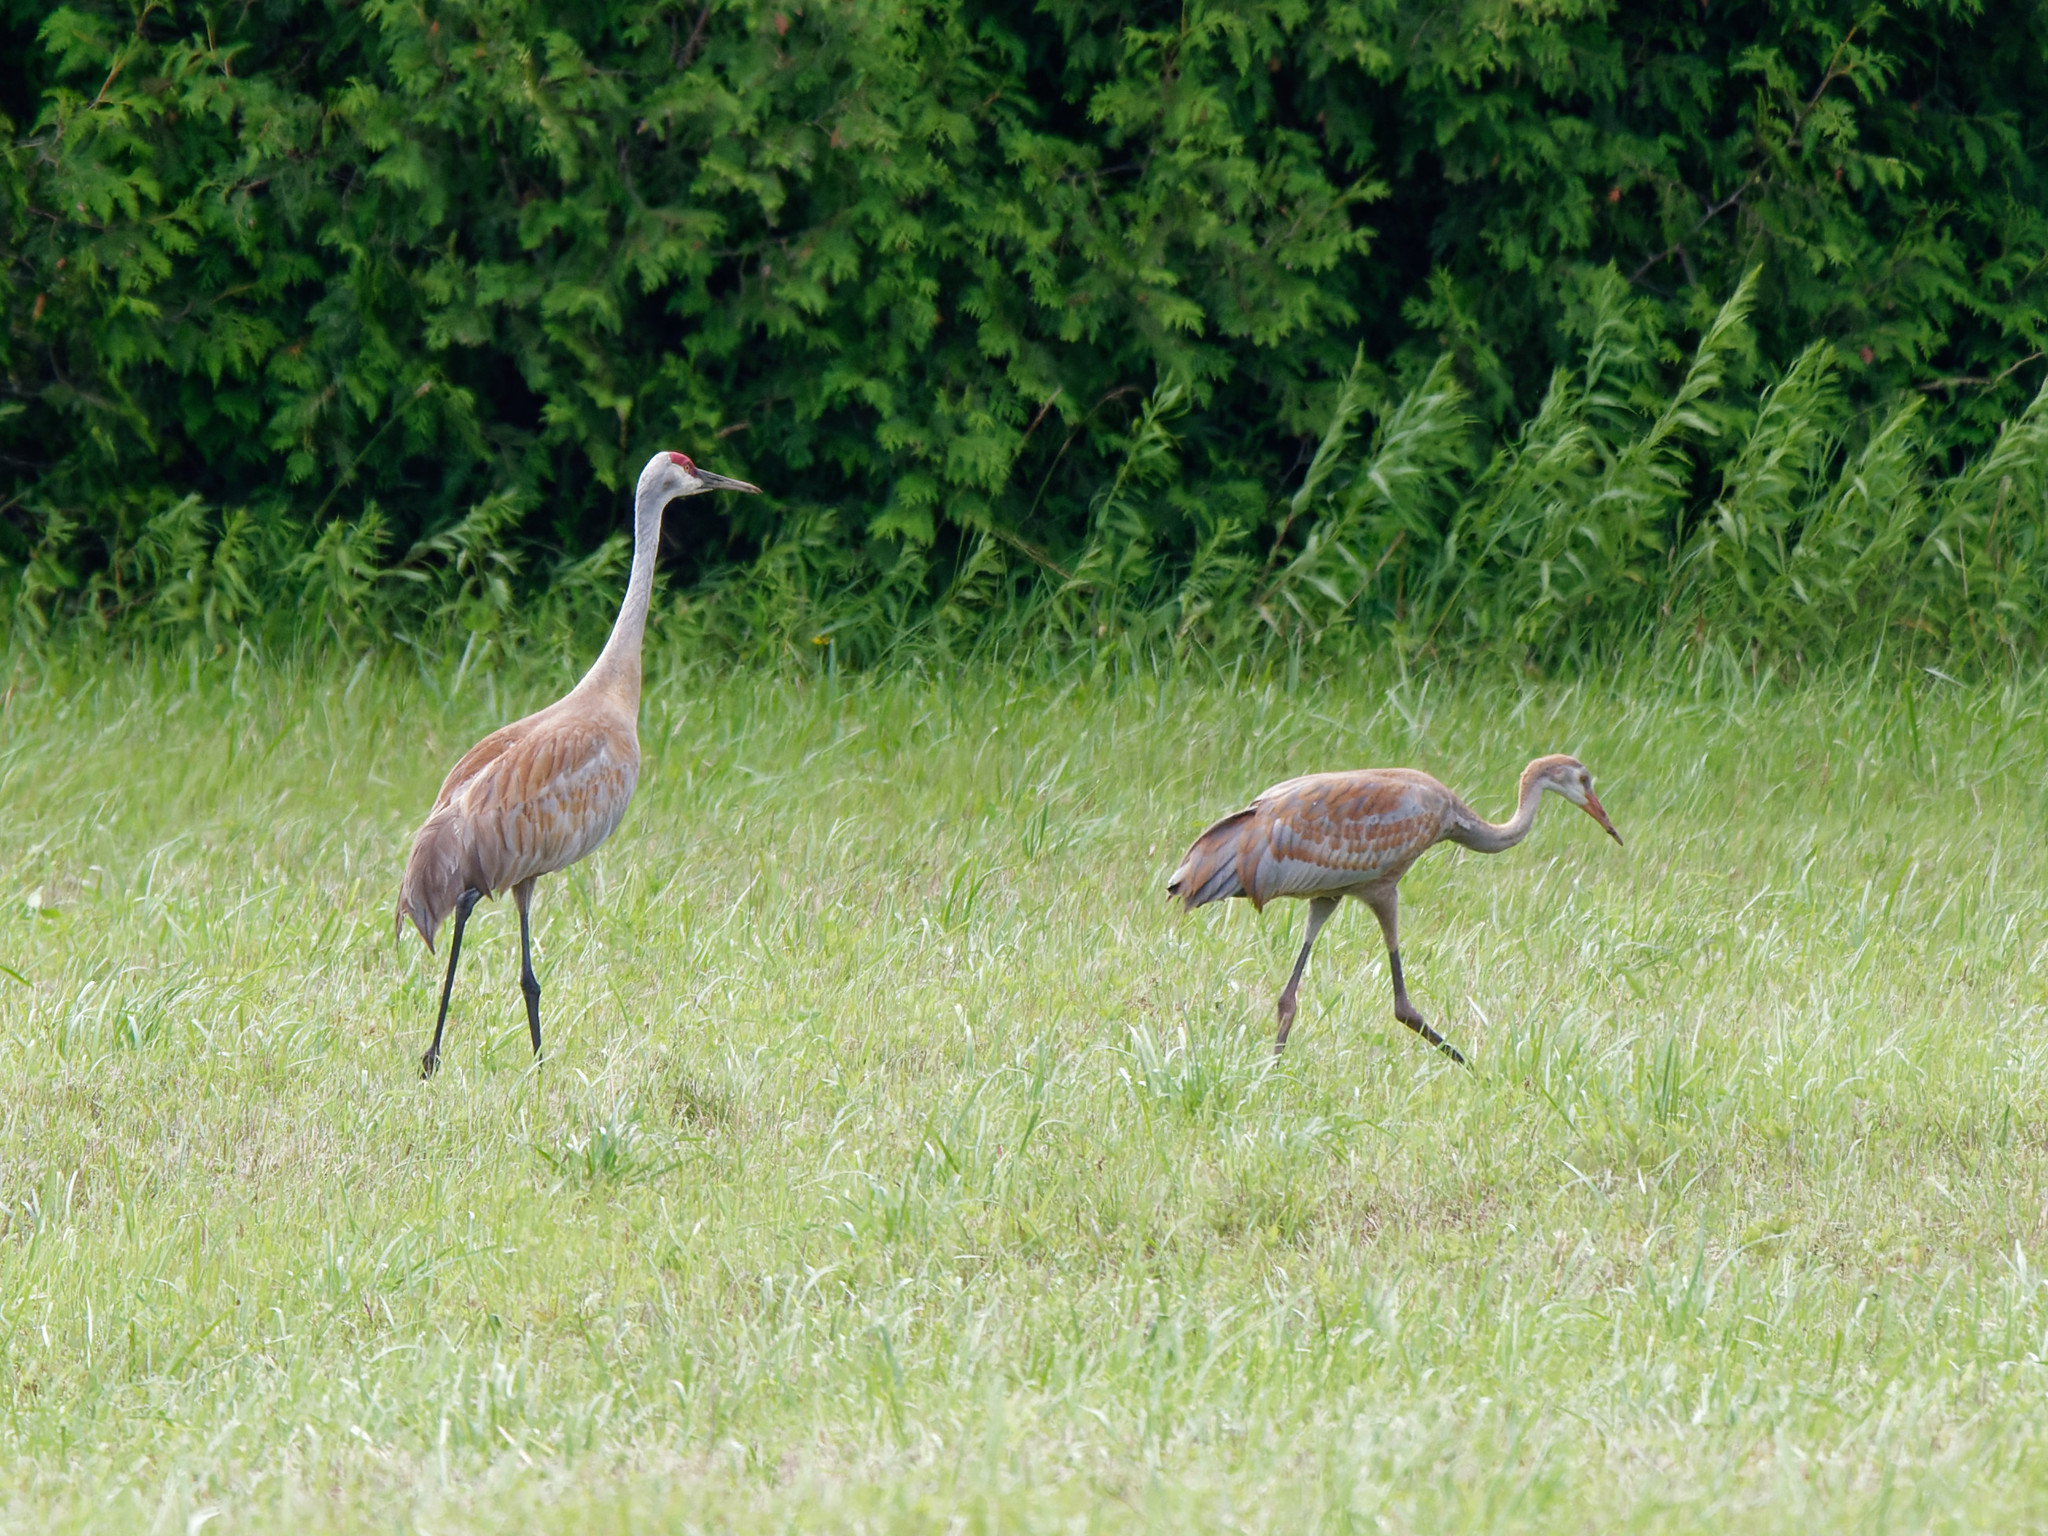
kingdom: Animalia
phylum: Chordata
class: Aves
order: Gruiformes
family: Gruidae
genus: Grus
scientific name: Grus canadensis
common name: Sandhill crane
